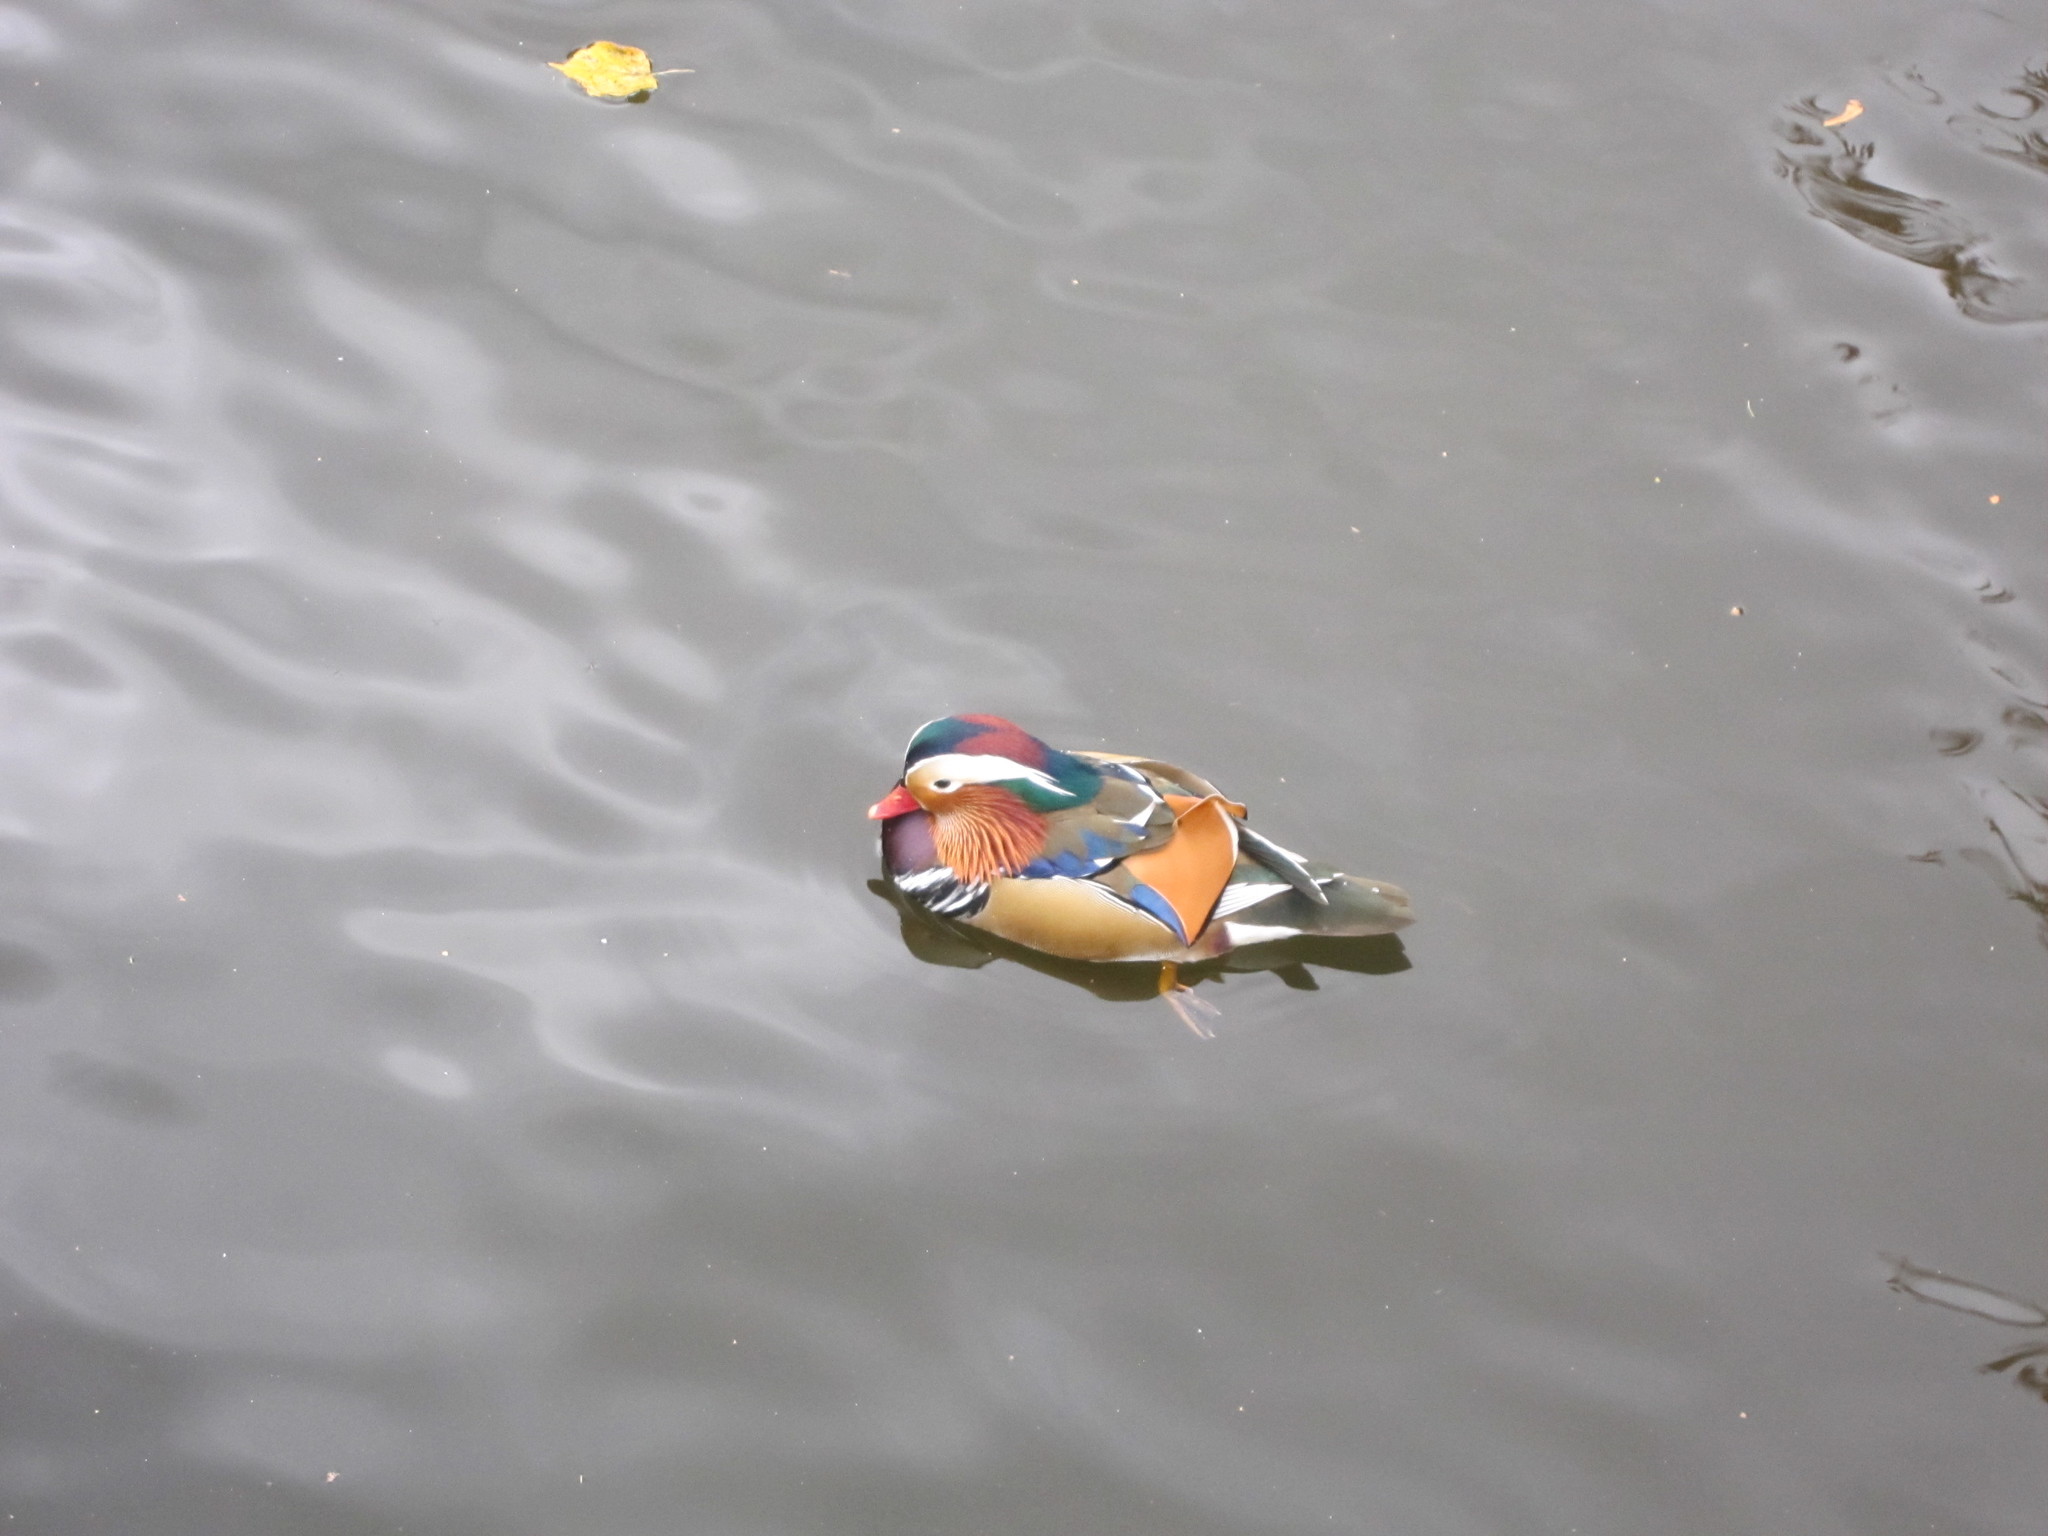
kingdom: Animalia
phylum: Chordata
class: Aves
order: Anseriformes
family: Anatidae
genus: Aix
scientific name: Aix galericulata
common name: Mandarin duck
